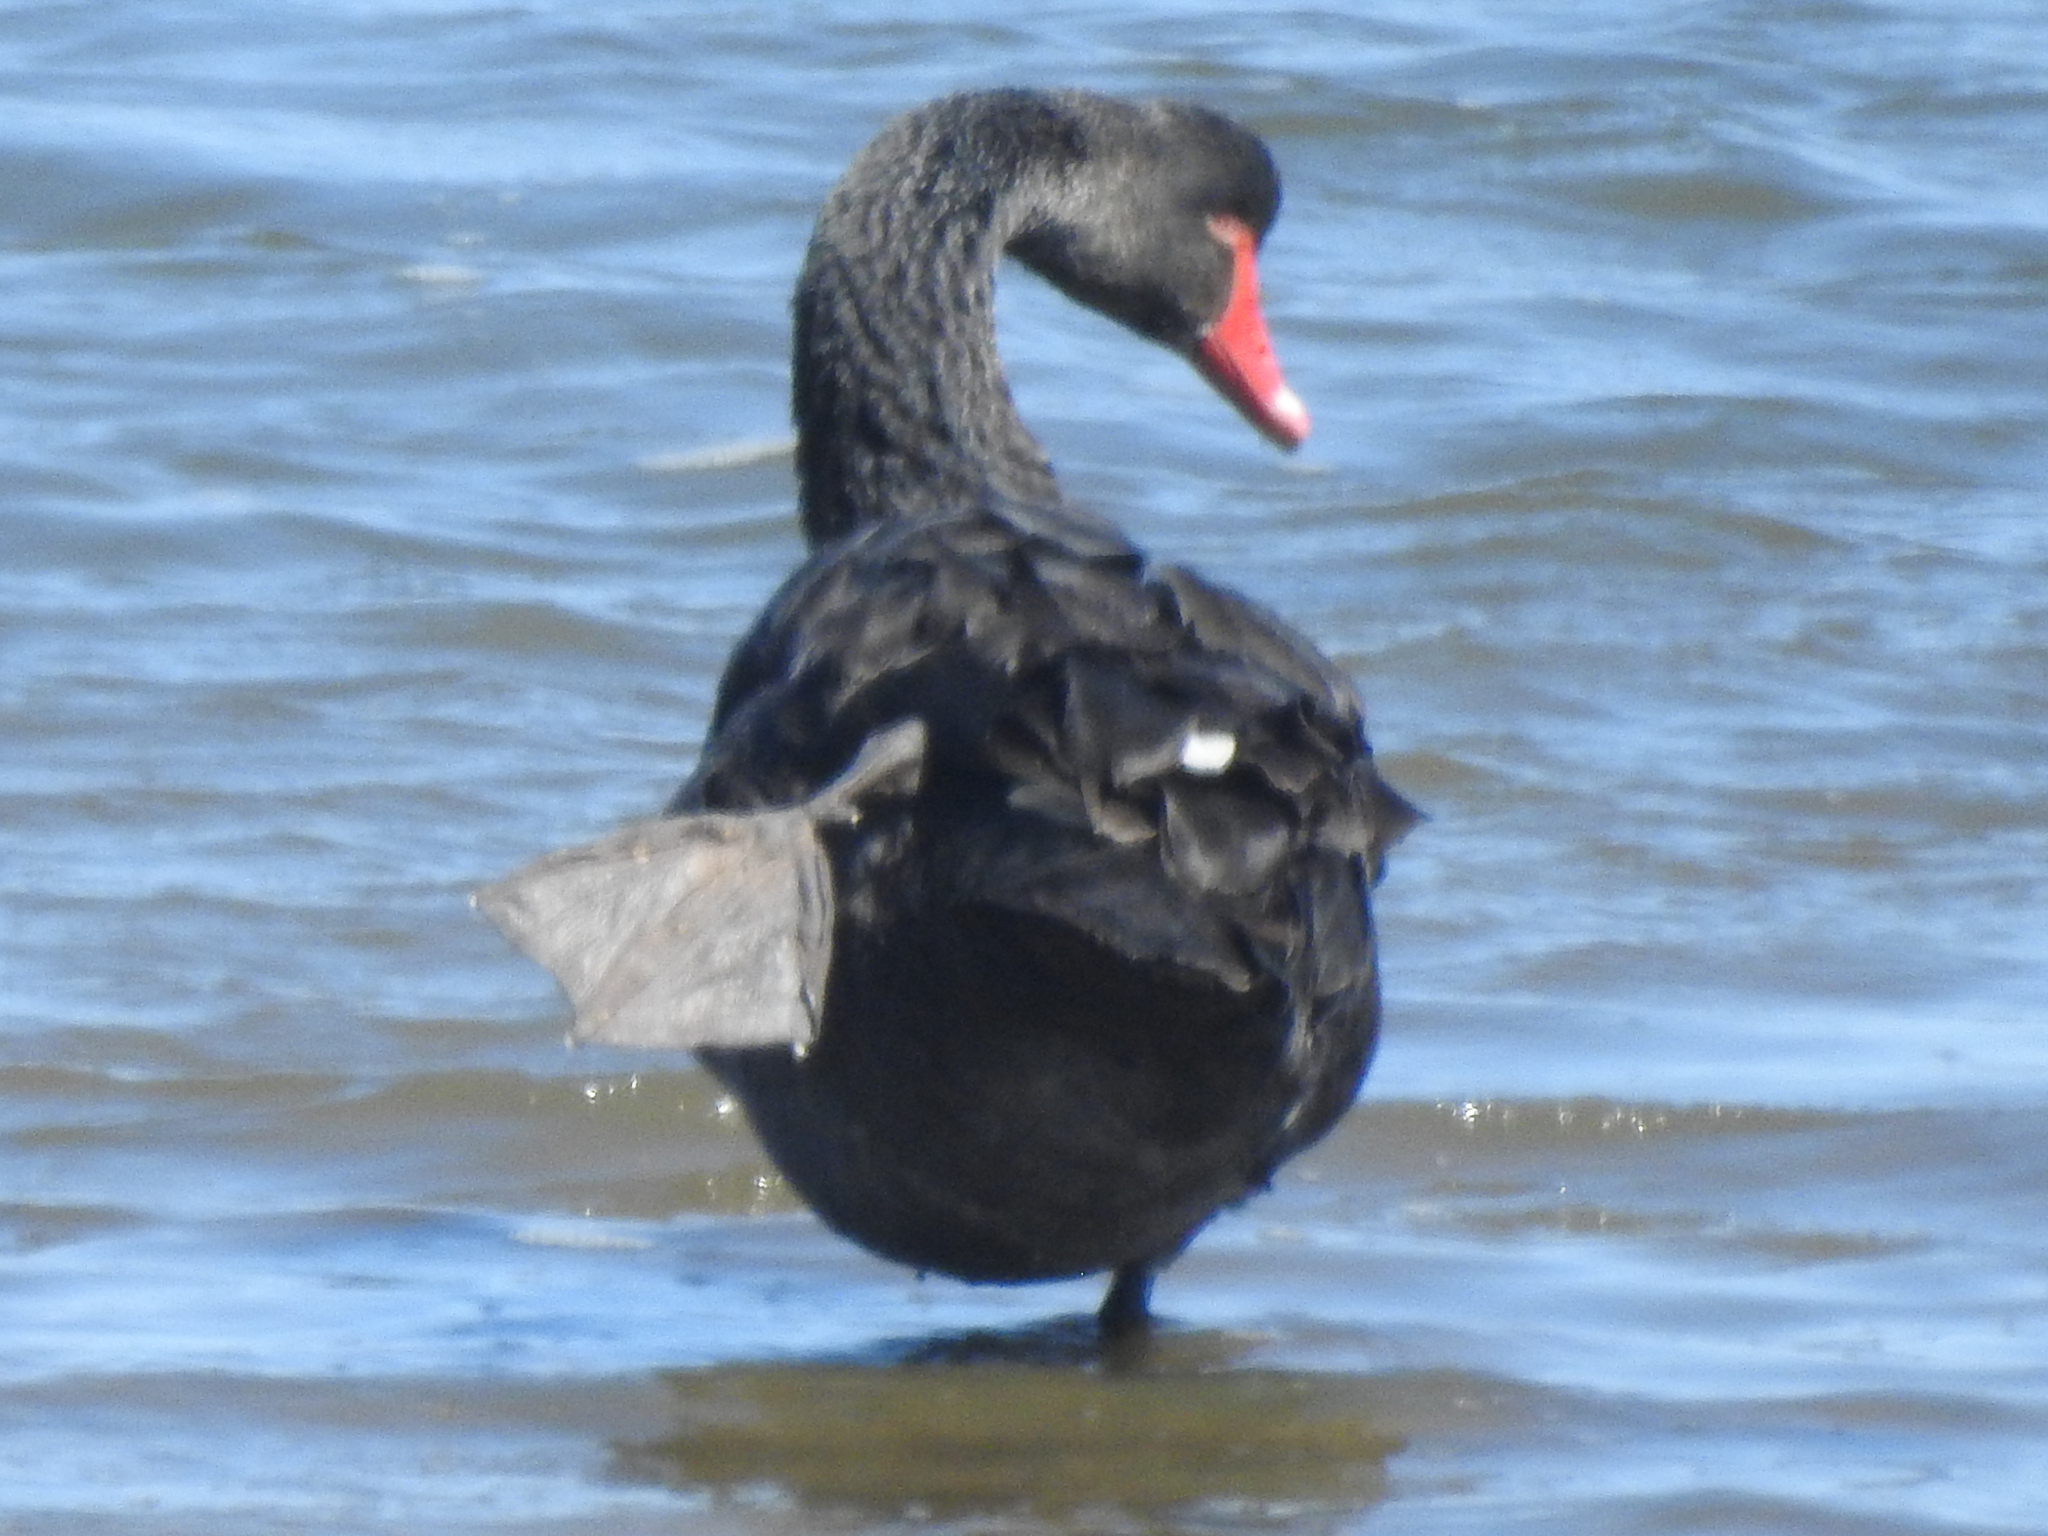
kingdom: Animalia
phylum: Chordata
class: Aves
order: Anseriformes
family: Anatidae
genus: Cygnus
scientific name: Cygnus atratus
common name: Black swan
